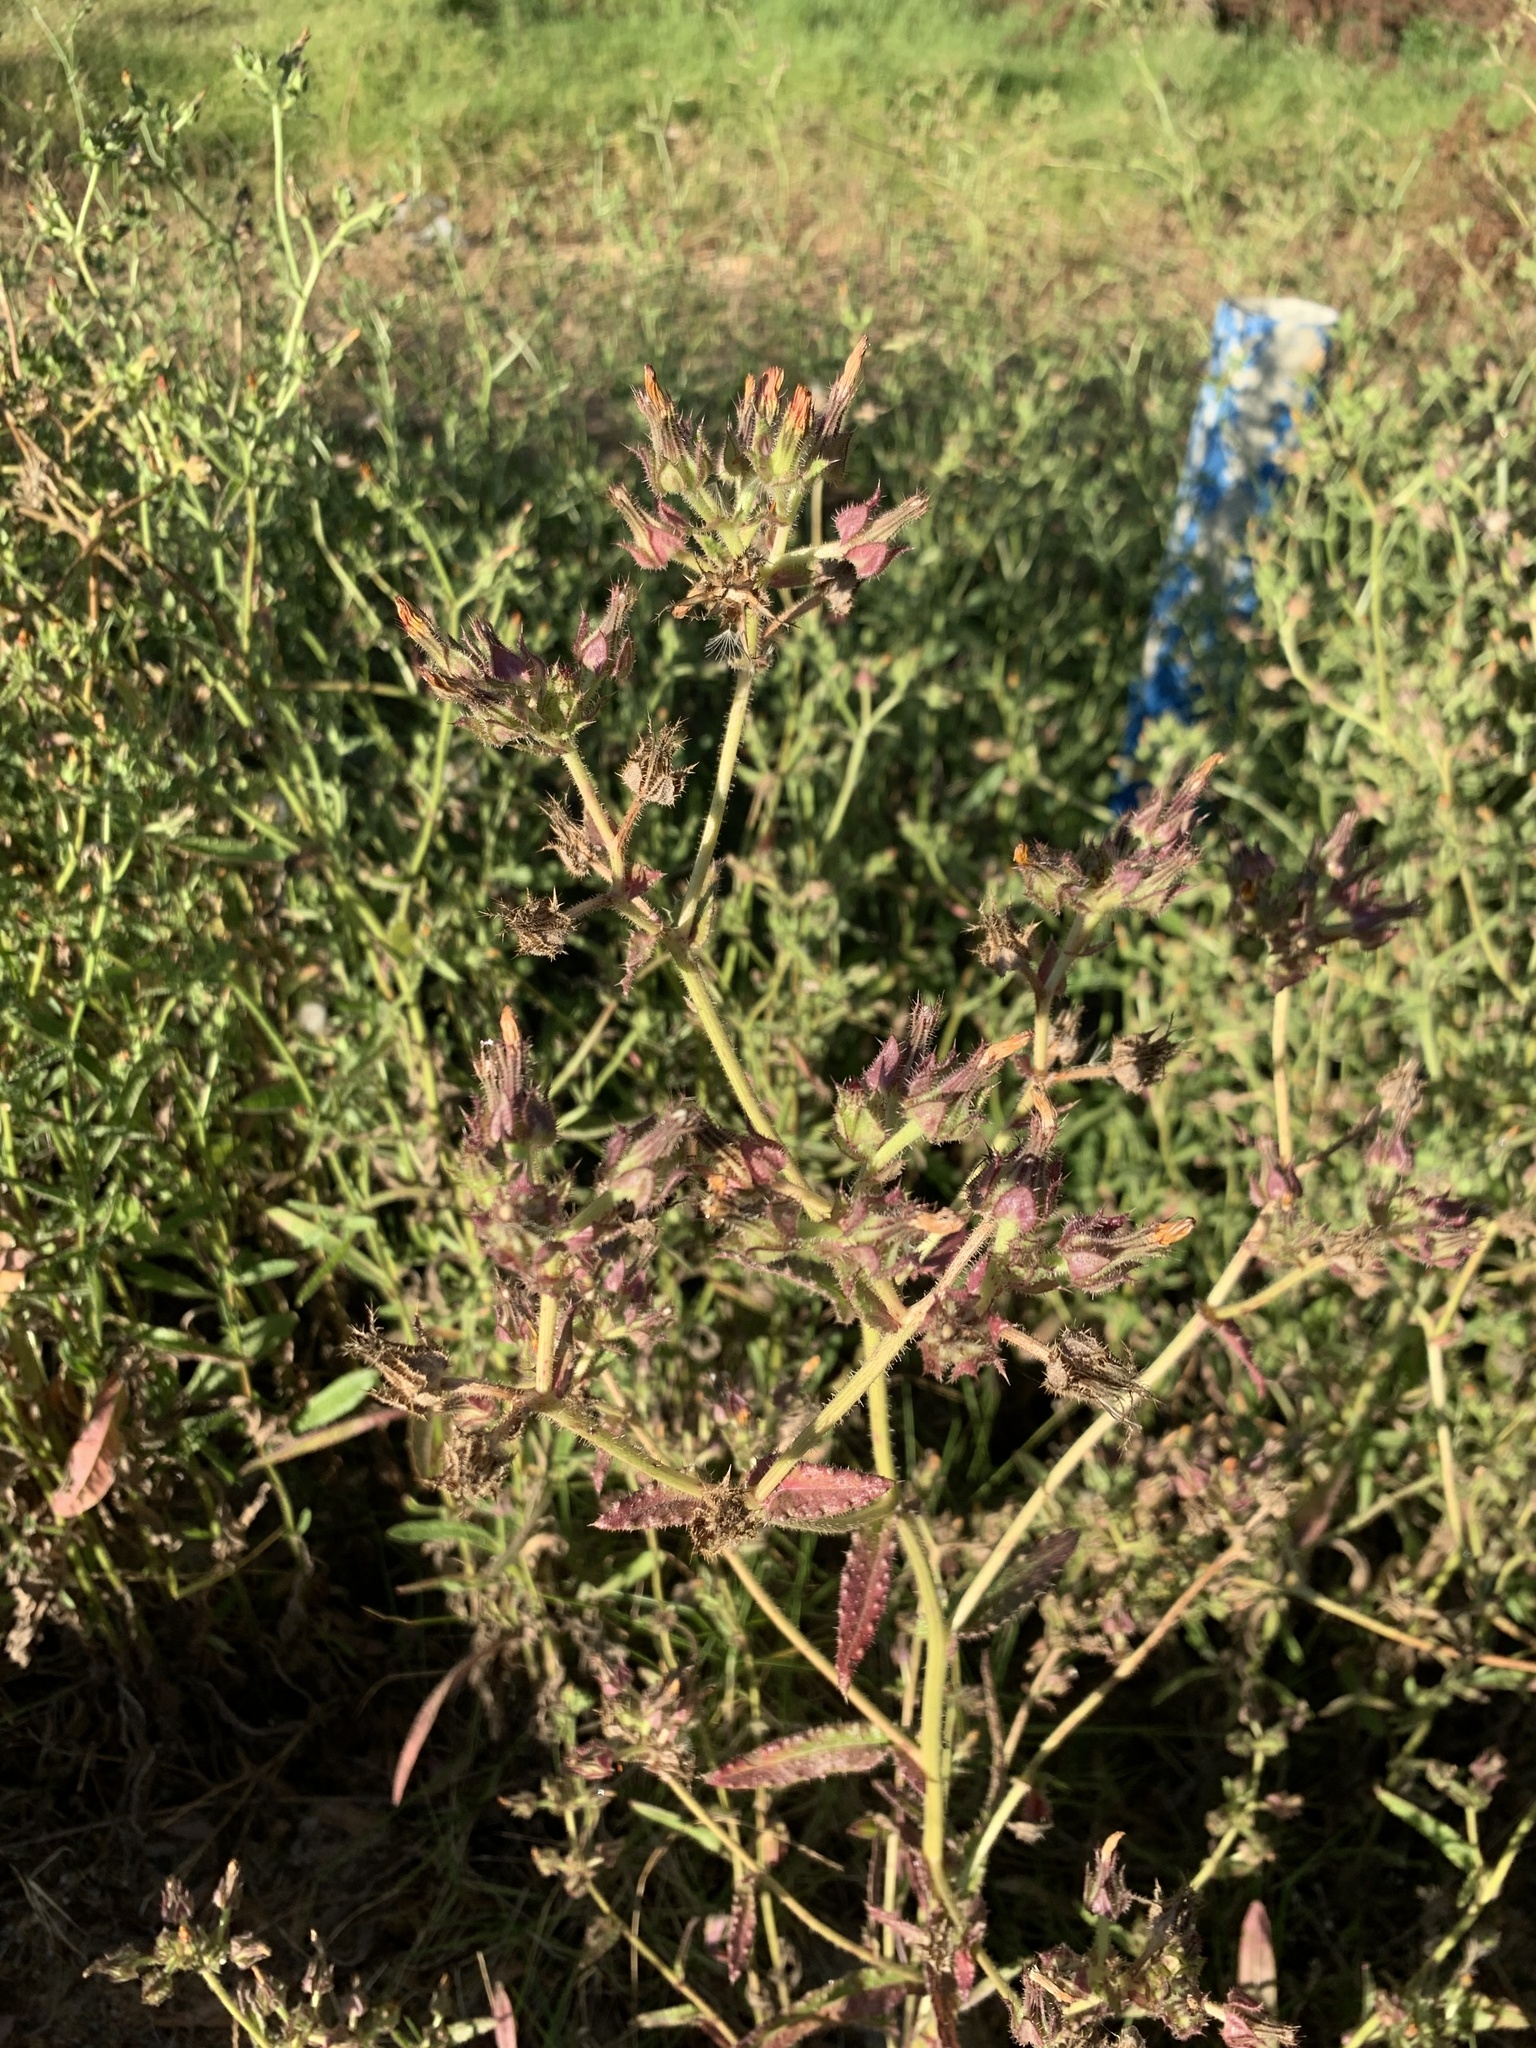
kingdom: Plantae
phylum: Tracheophyta
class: Magnoliopsida
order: Asterales
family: Asteraceae
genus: Helminthotheca
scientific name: Helminthotheca echioides
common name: Ox-tongue
